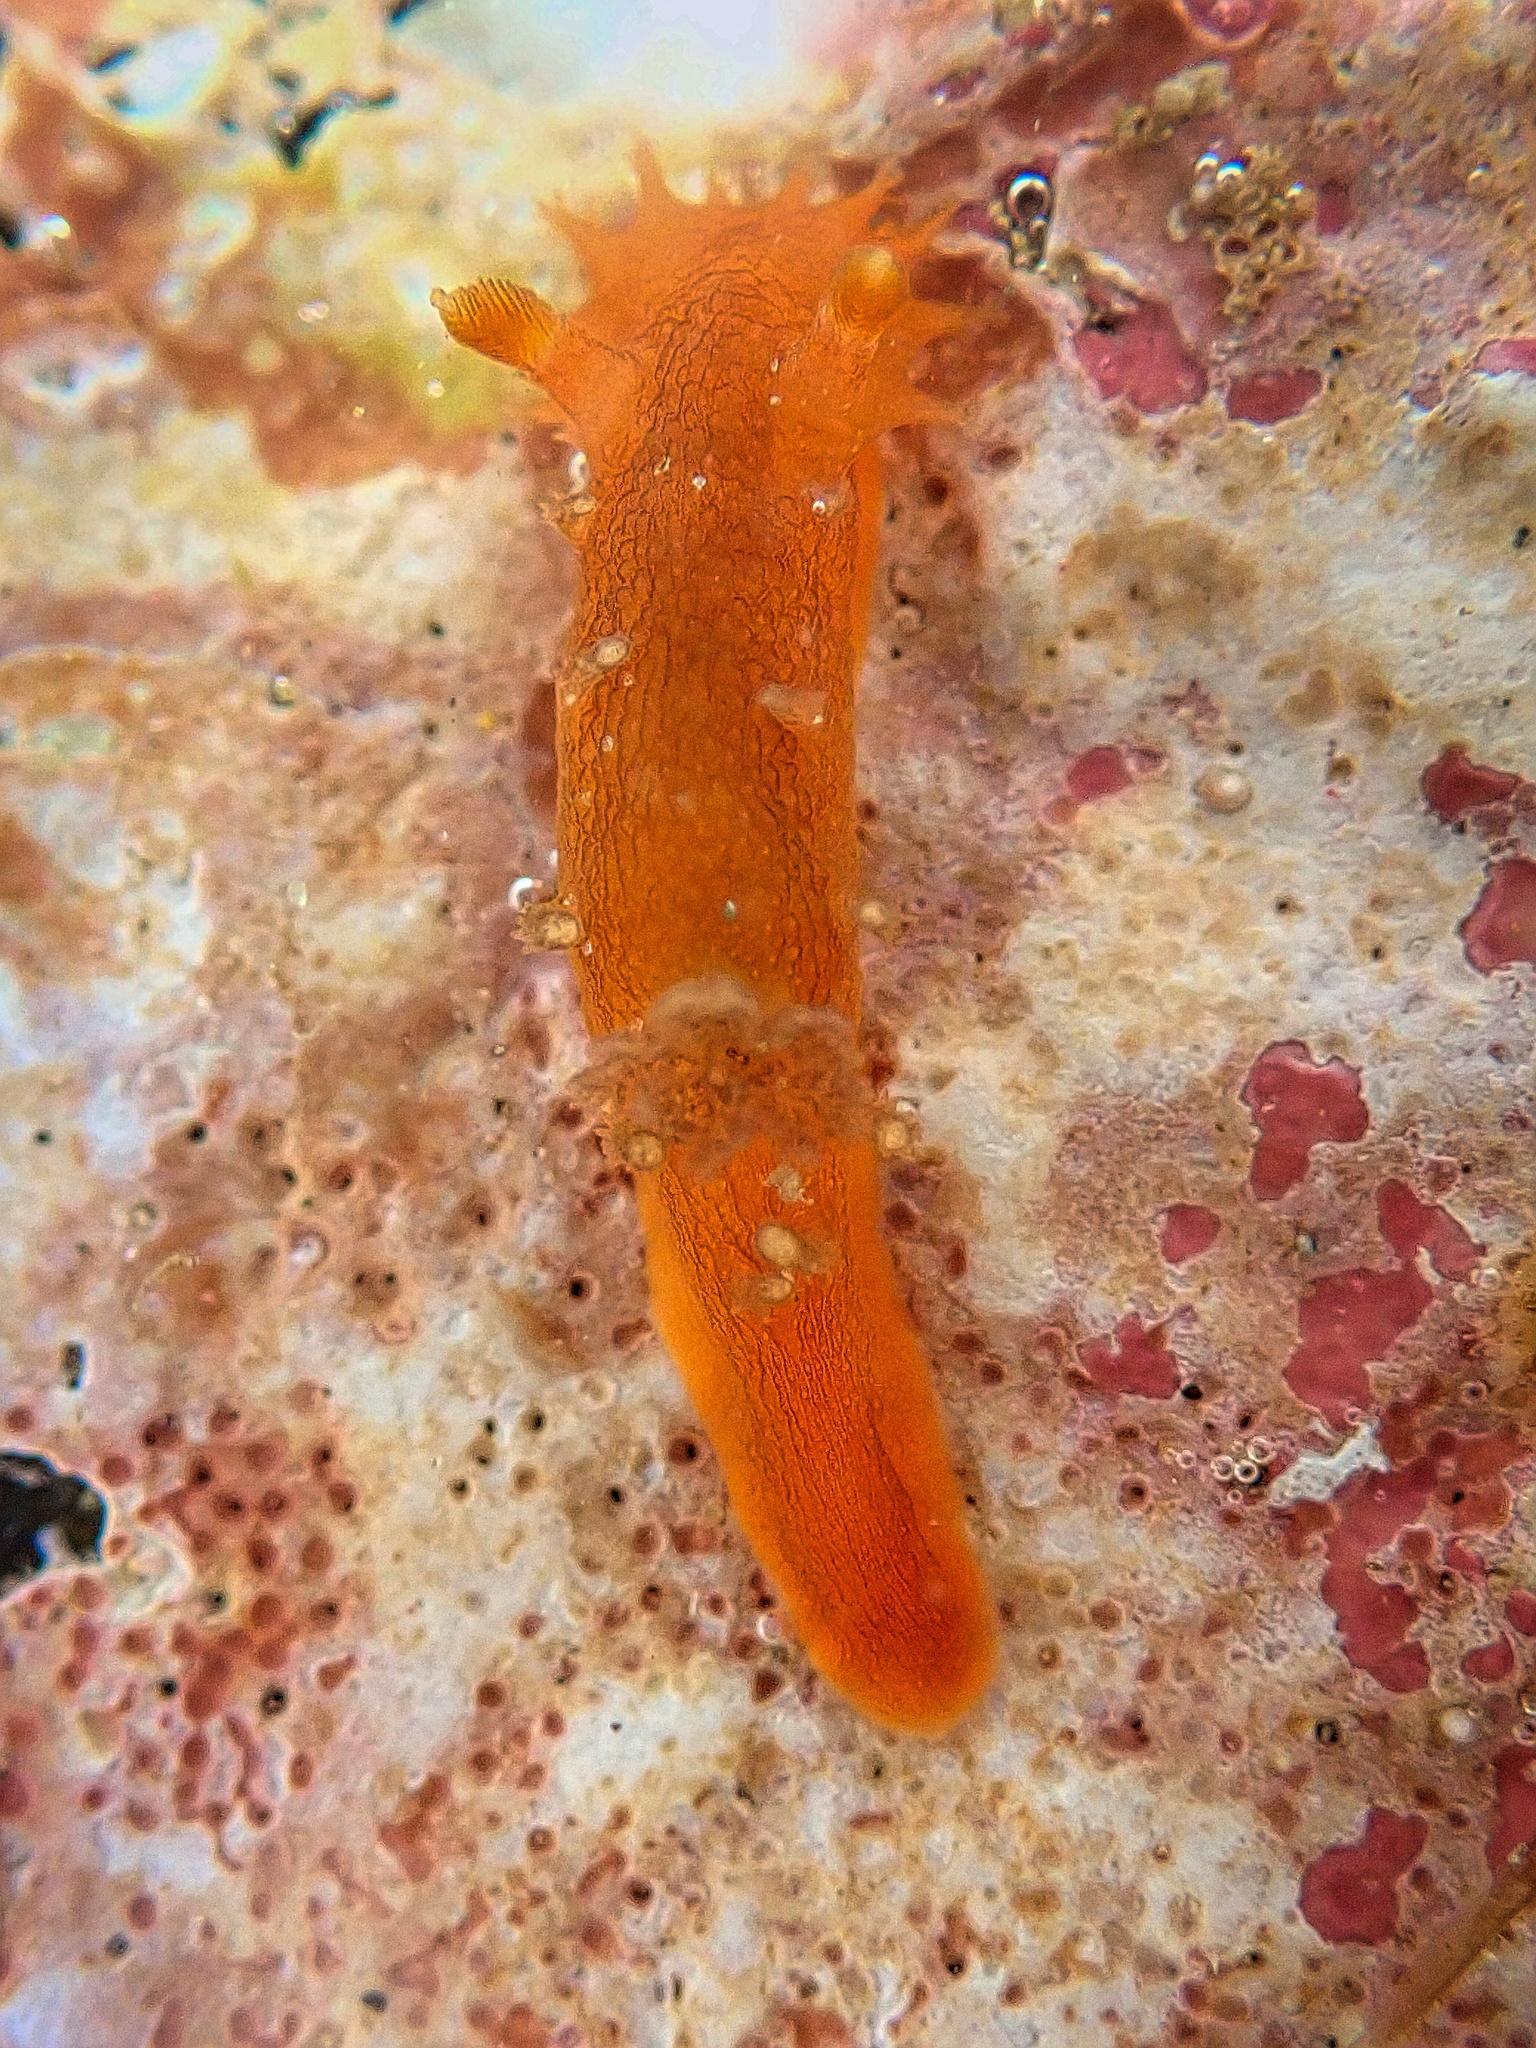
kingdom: Animalia
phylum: Mollusca
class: Gastropoda
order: Nudibranchia
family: Polyceridae
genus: Triopha
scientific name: Triopha maculata
